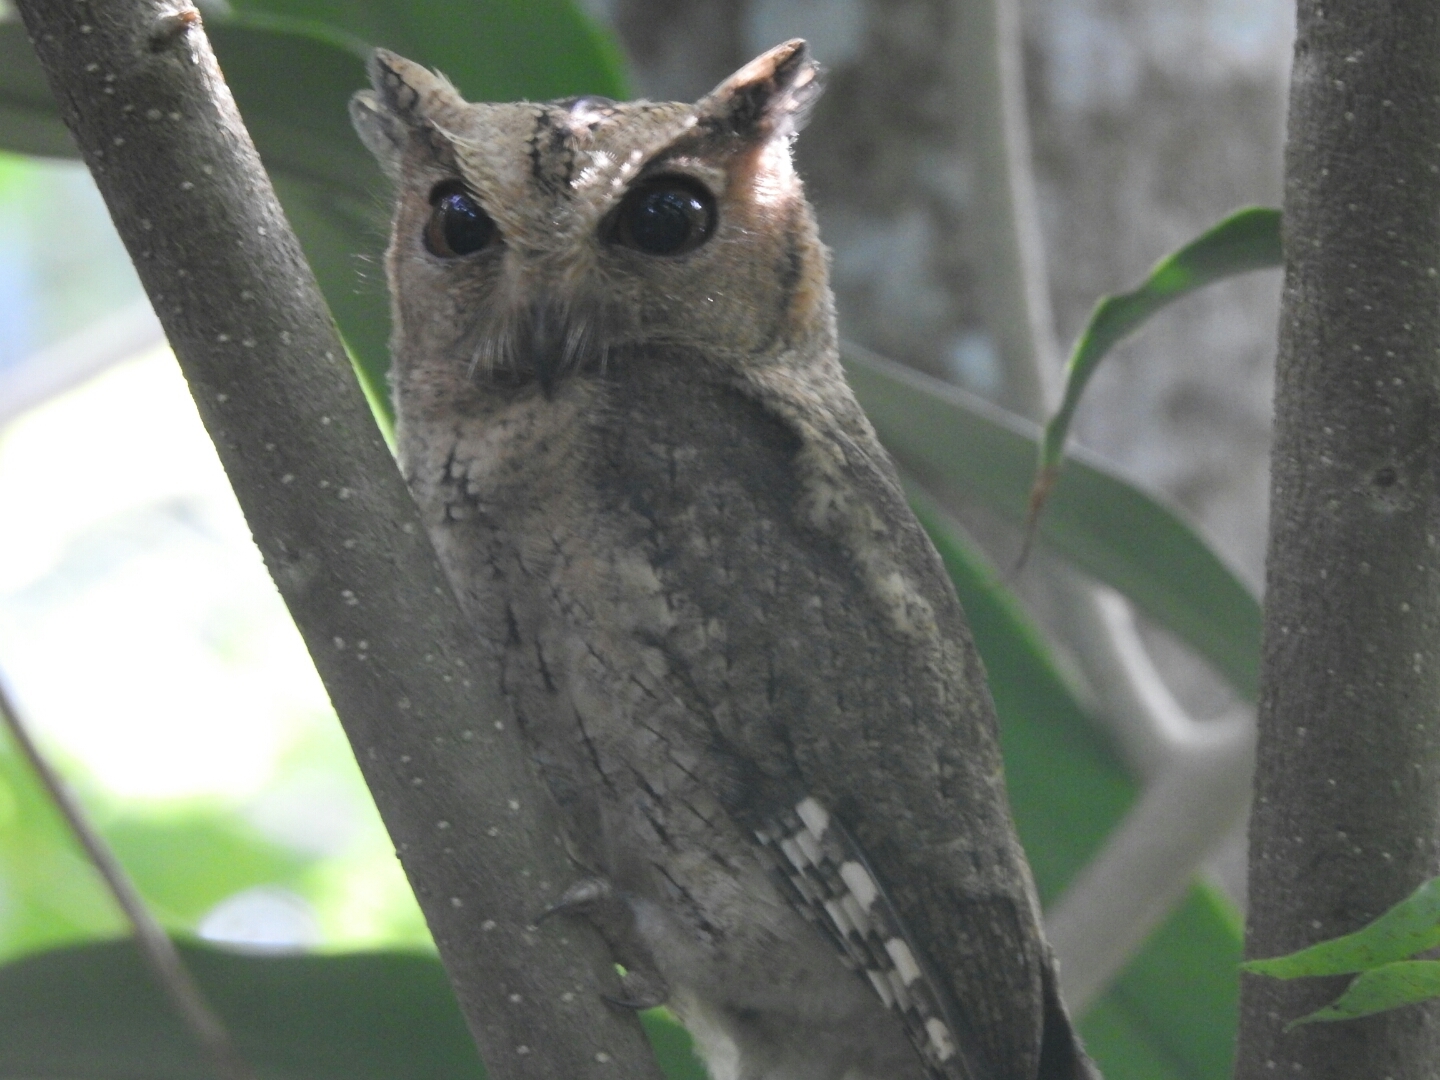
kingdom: Animalia
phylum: Chordata
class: Aves
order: Strigiformes
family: Strigidae
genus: Otus
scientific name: Otus bakkamoena
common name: Indian scops owl
